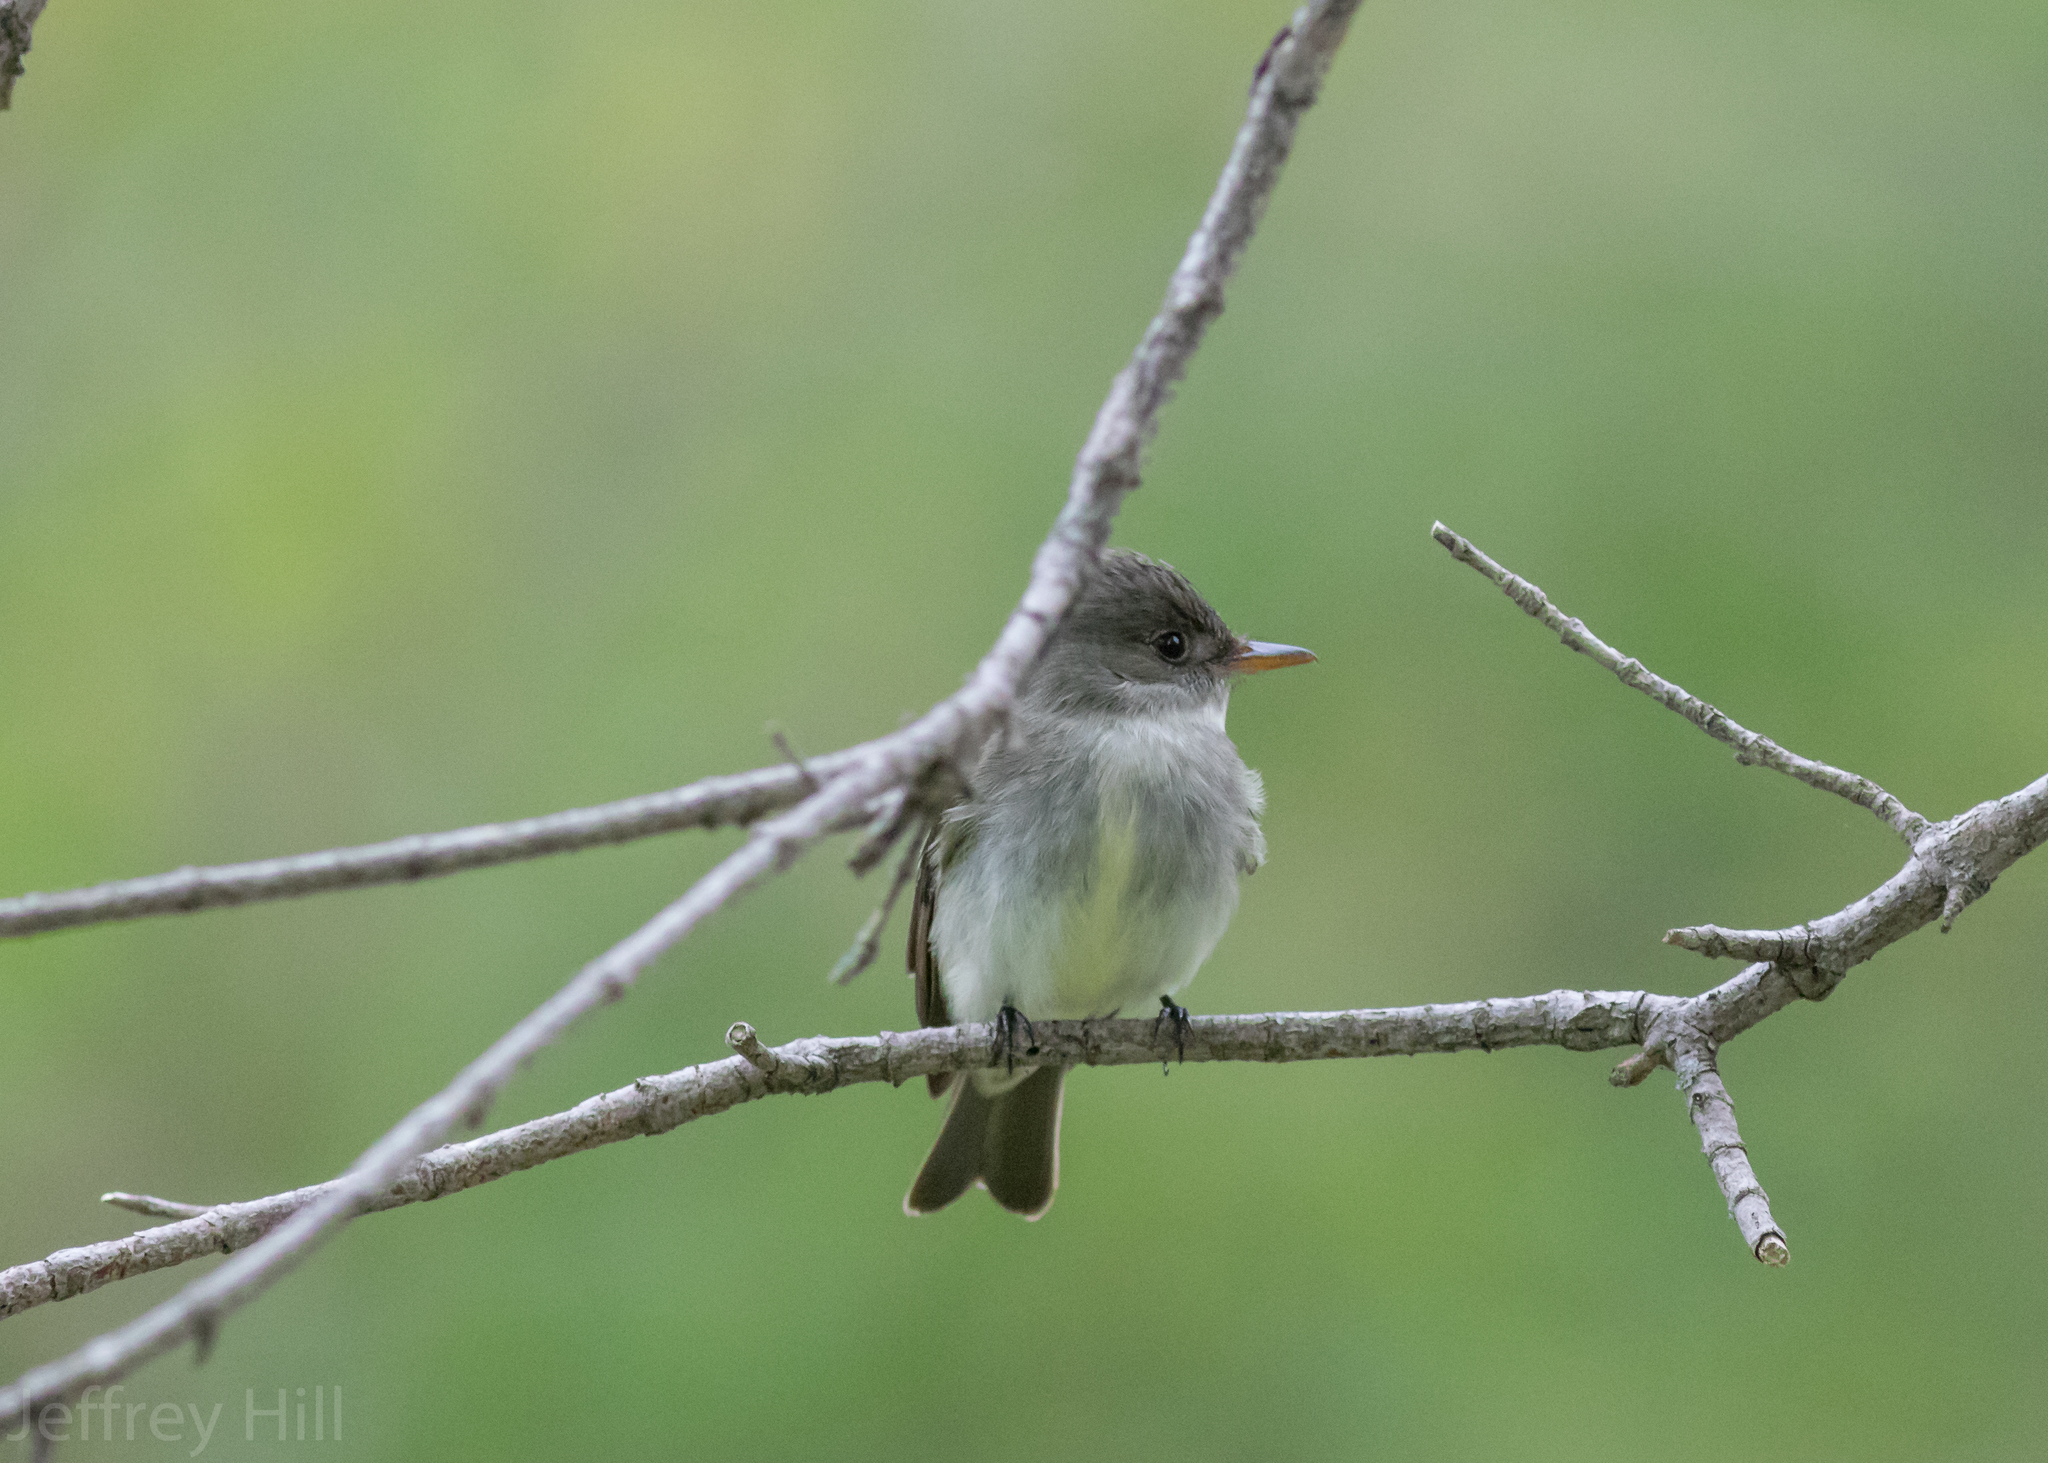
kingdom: Animalia
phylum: Chordata
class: Aves
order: Passeriformes
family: Tyrannidae
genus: Contopus
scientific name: Contopus virens
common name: Eastern wood-pewee
